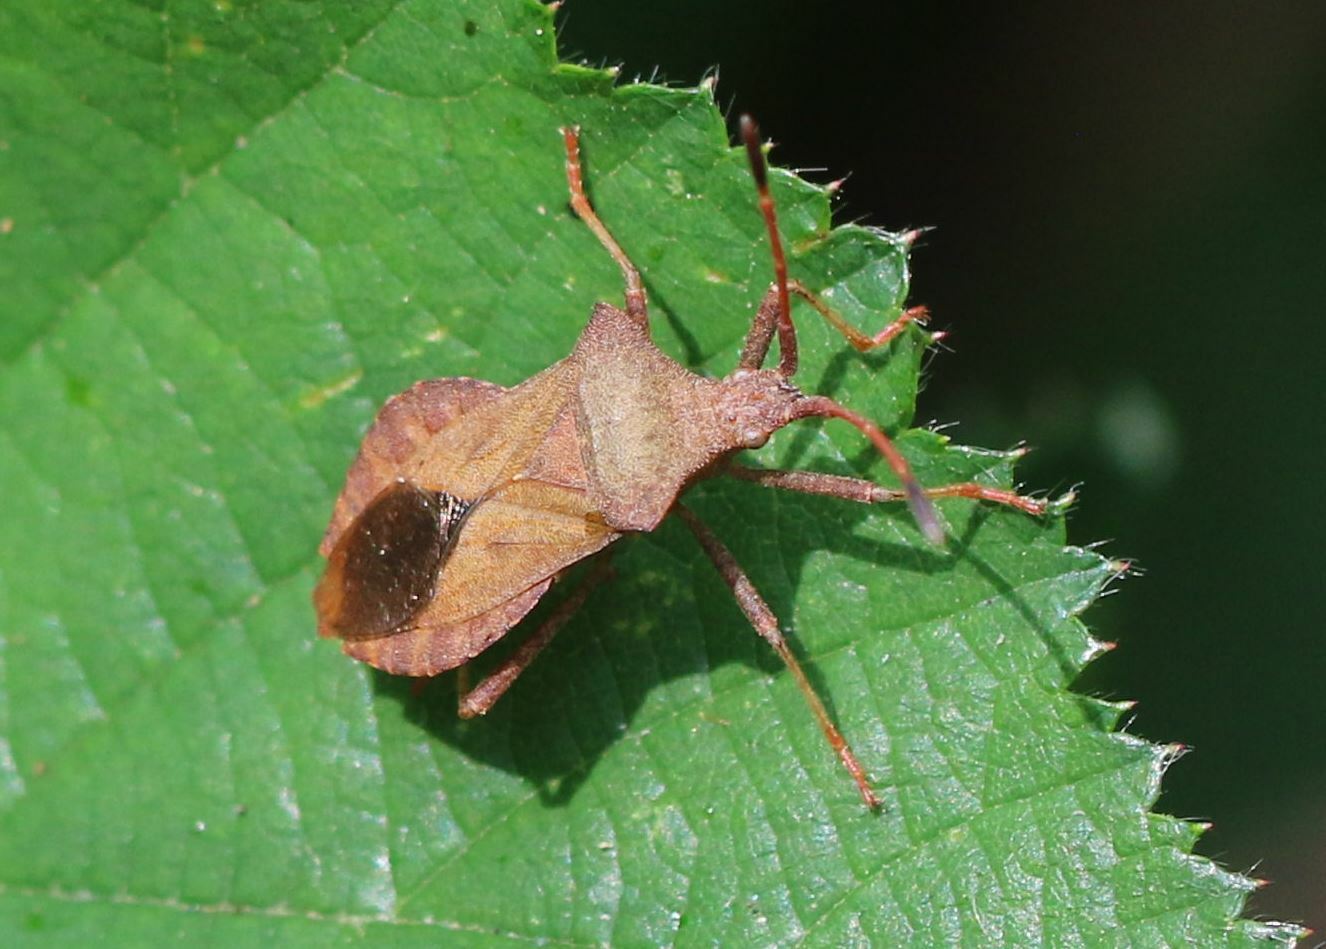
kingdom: Animalia
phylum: Arthropoda
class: Insecta
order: Hemiptera
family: Coreidae
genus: Coreus
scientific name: Coreus marginatus
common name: Dock bug
